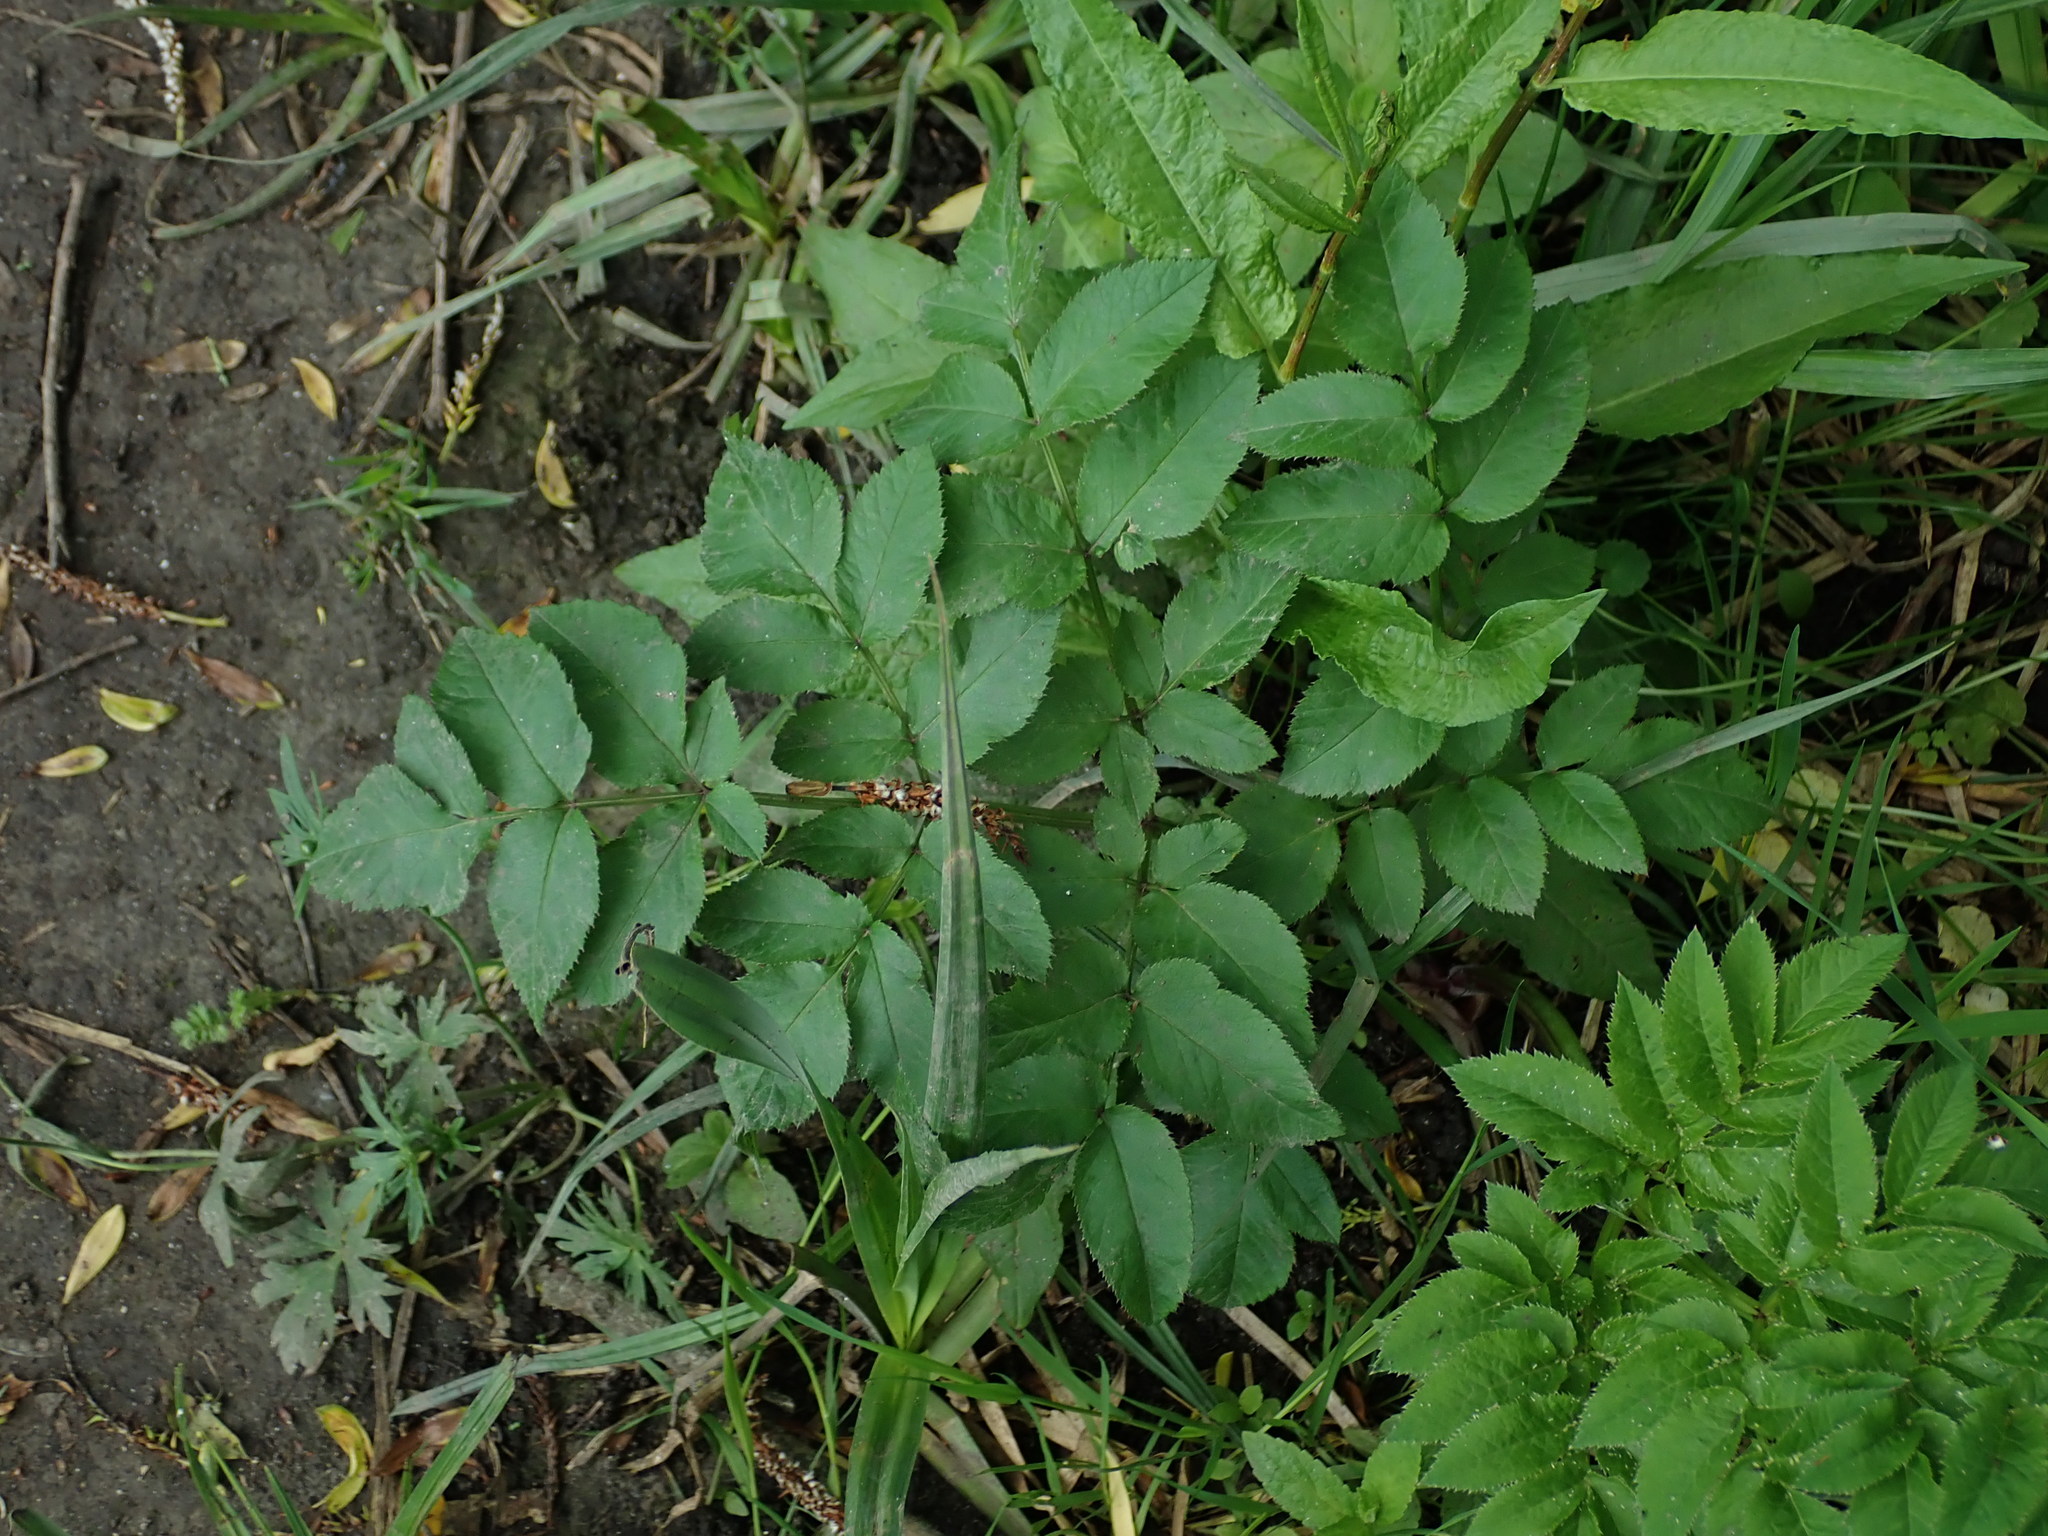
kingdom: Plantae
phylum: Tracheophyta
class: Magnoliopsida
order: Apiales
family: Apiaceae
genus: Angelica
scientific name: Angelica sylvestris
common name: Wild angelica
